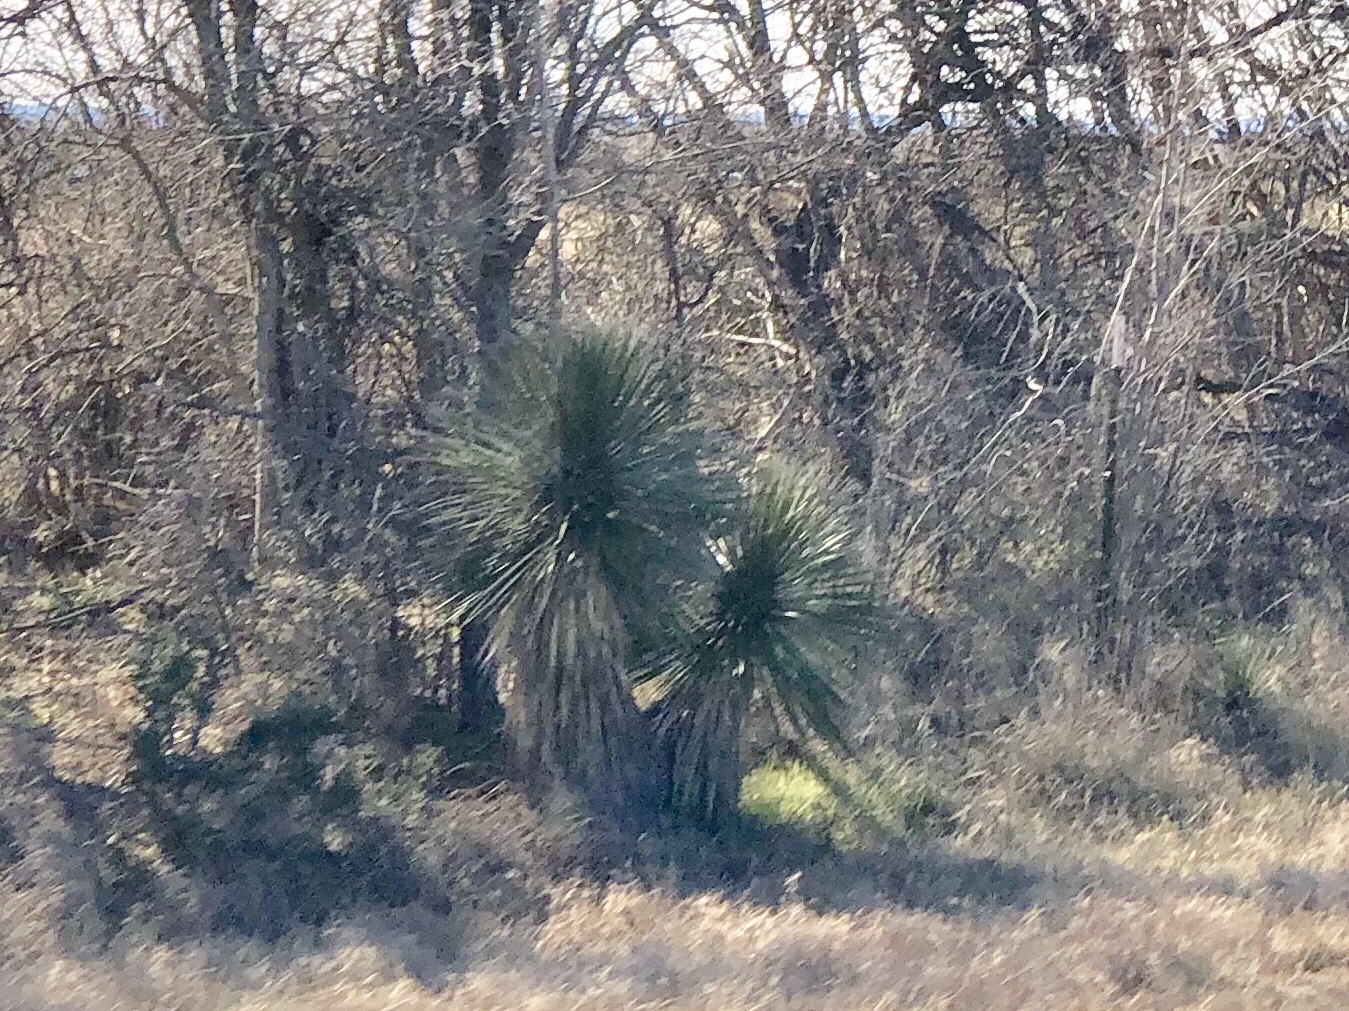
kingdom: Plantae
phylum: Tracheophyta
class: Liliopsida
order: Asparagales
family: Asparagaceae
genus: Yucca
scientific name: Yucca elata
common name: Palmella
